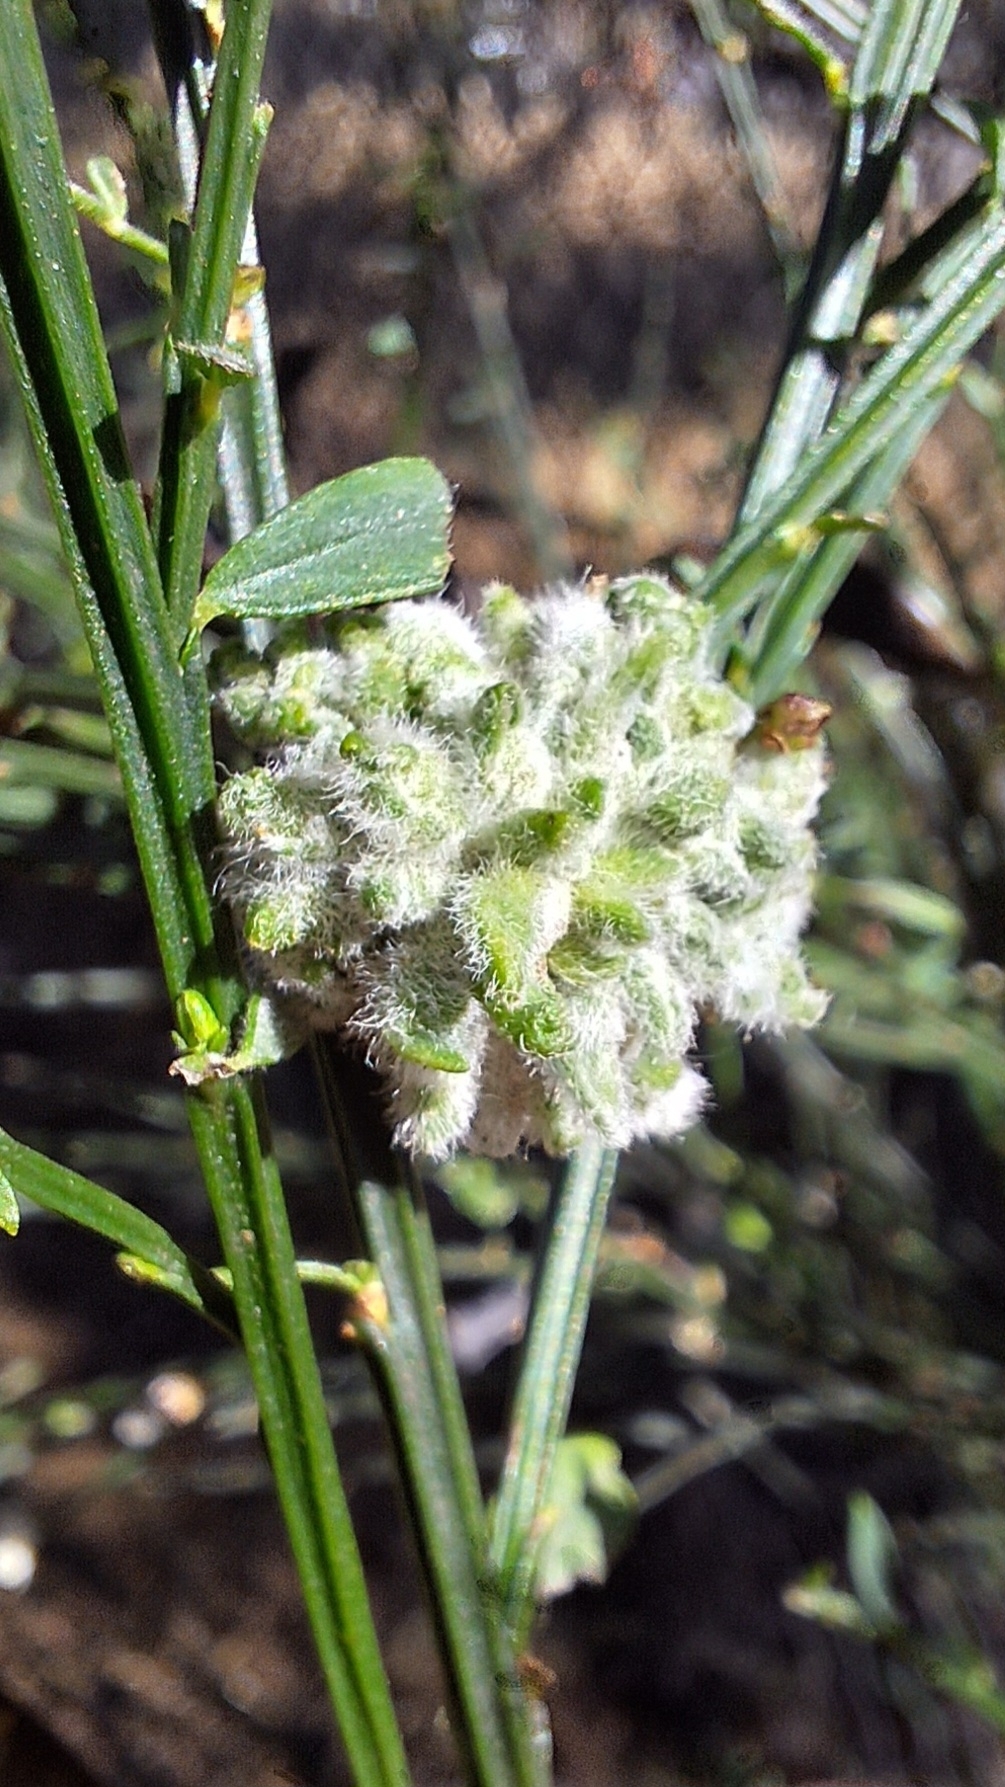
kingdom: Animalia
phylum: Arthropoda
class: Arachnida
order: Trombidiformes
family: Eriophyidae
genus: Aceria
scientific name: Aceria genistae
